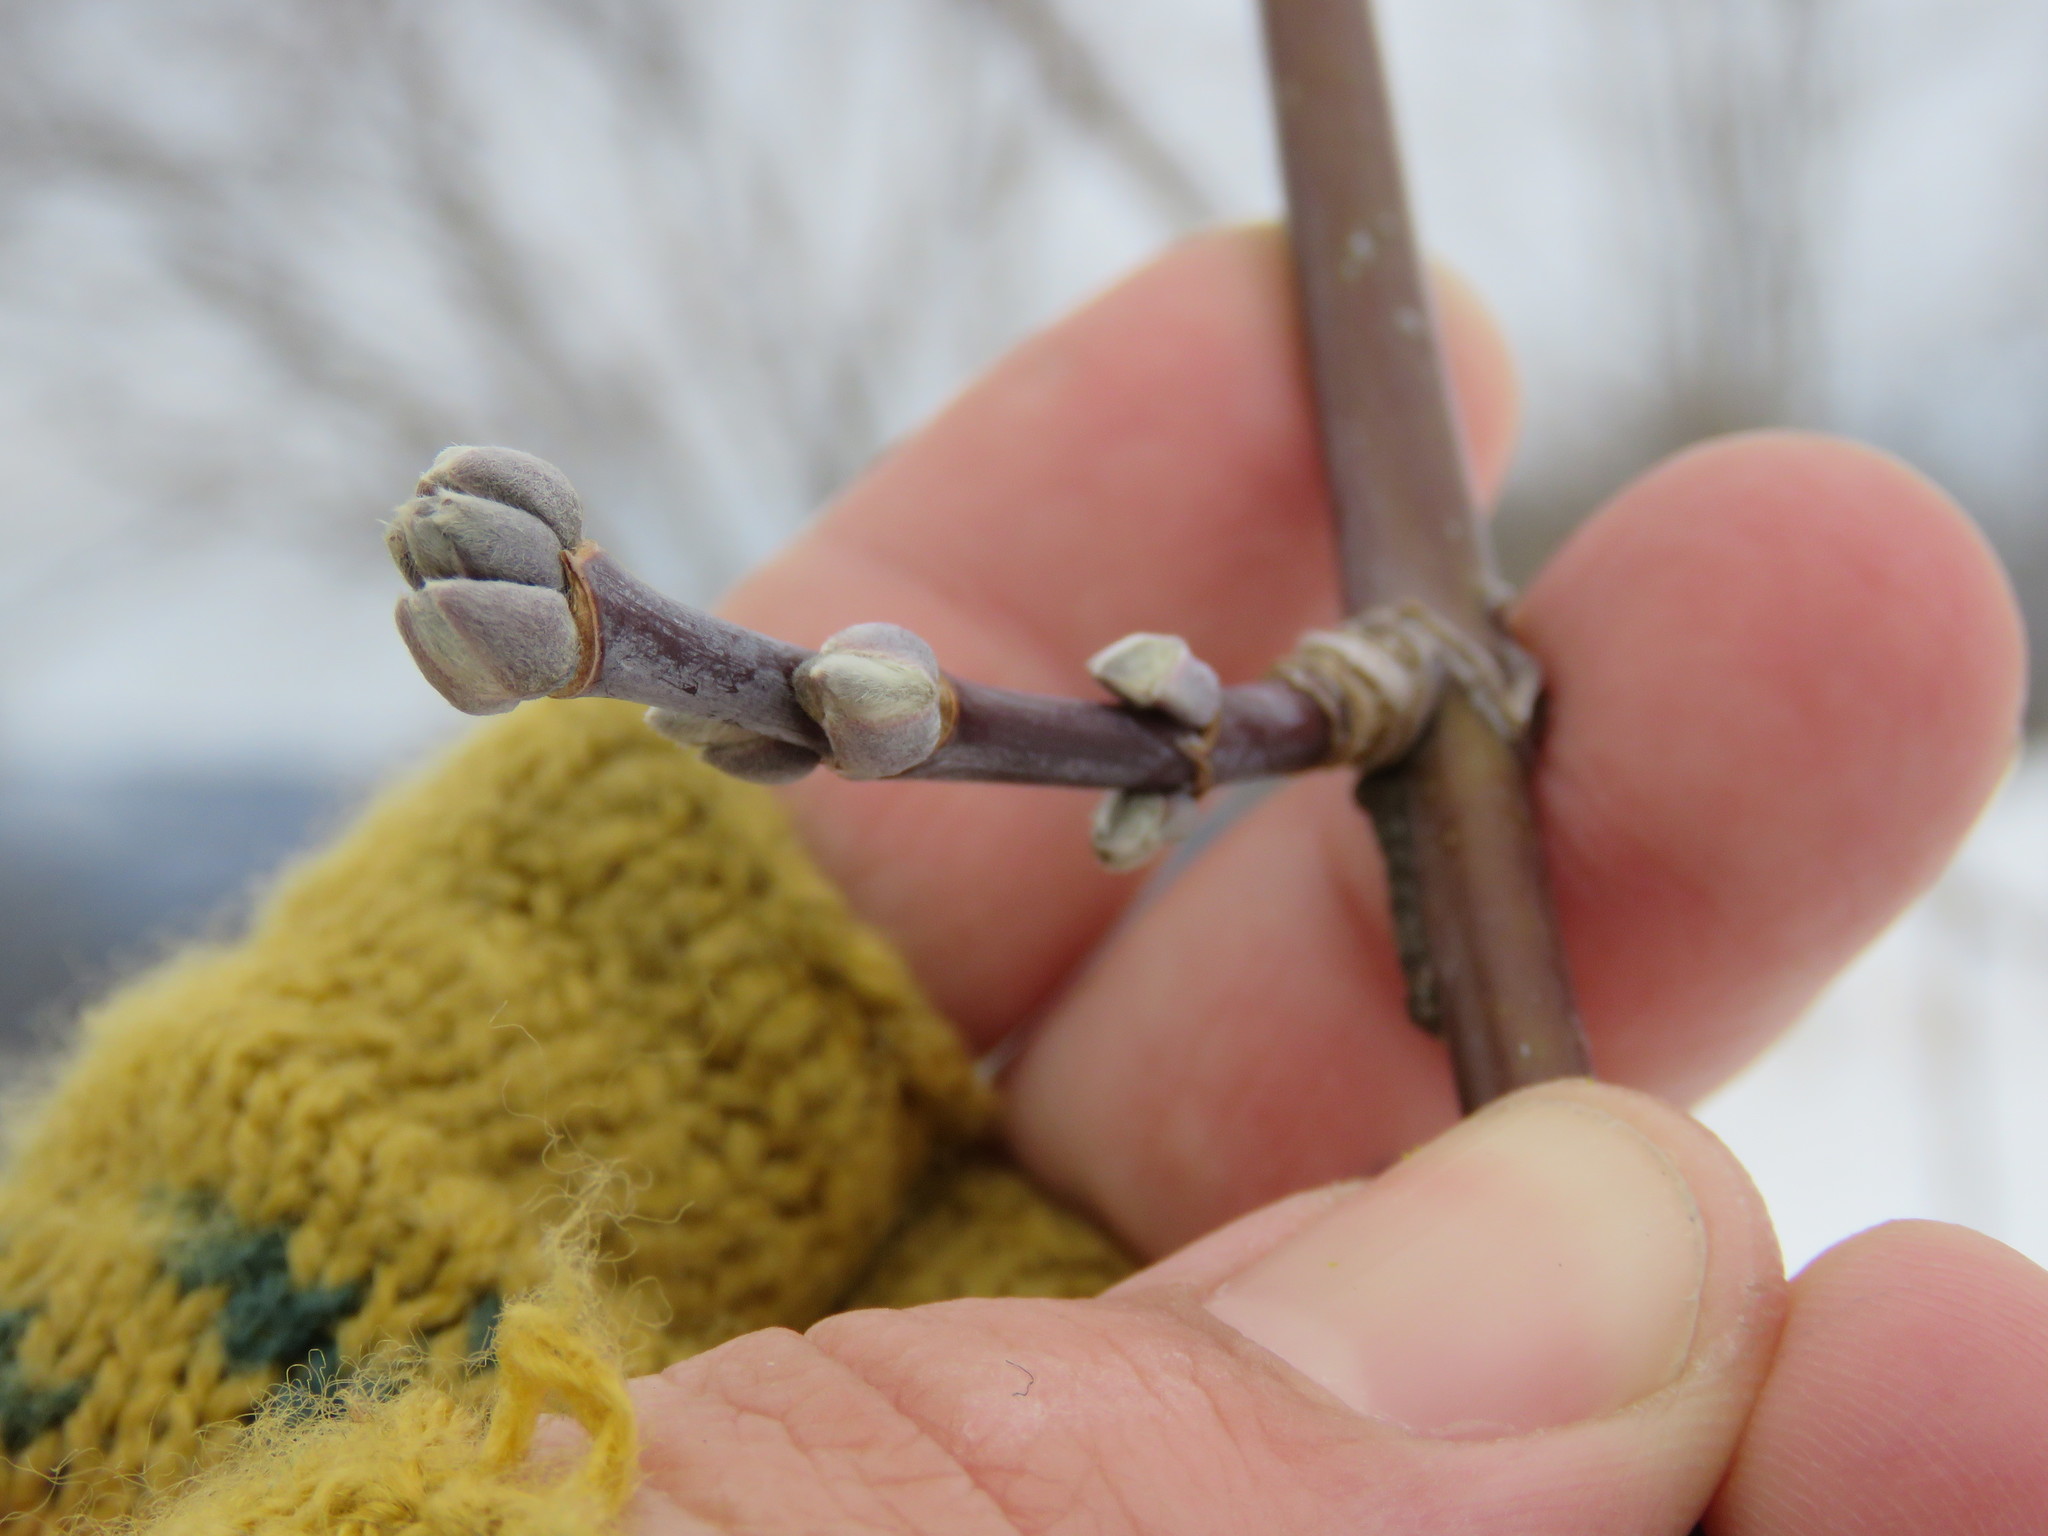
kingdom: Plantae
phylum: Tracheophyta
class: Magnoliopsida
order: Sapindales
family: Sapindaceae
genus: Acer
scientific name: Acer negundo
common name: Ashleaf maple
